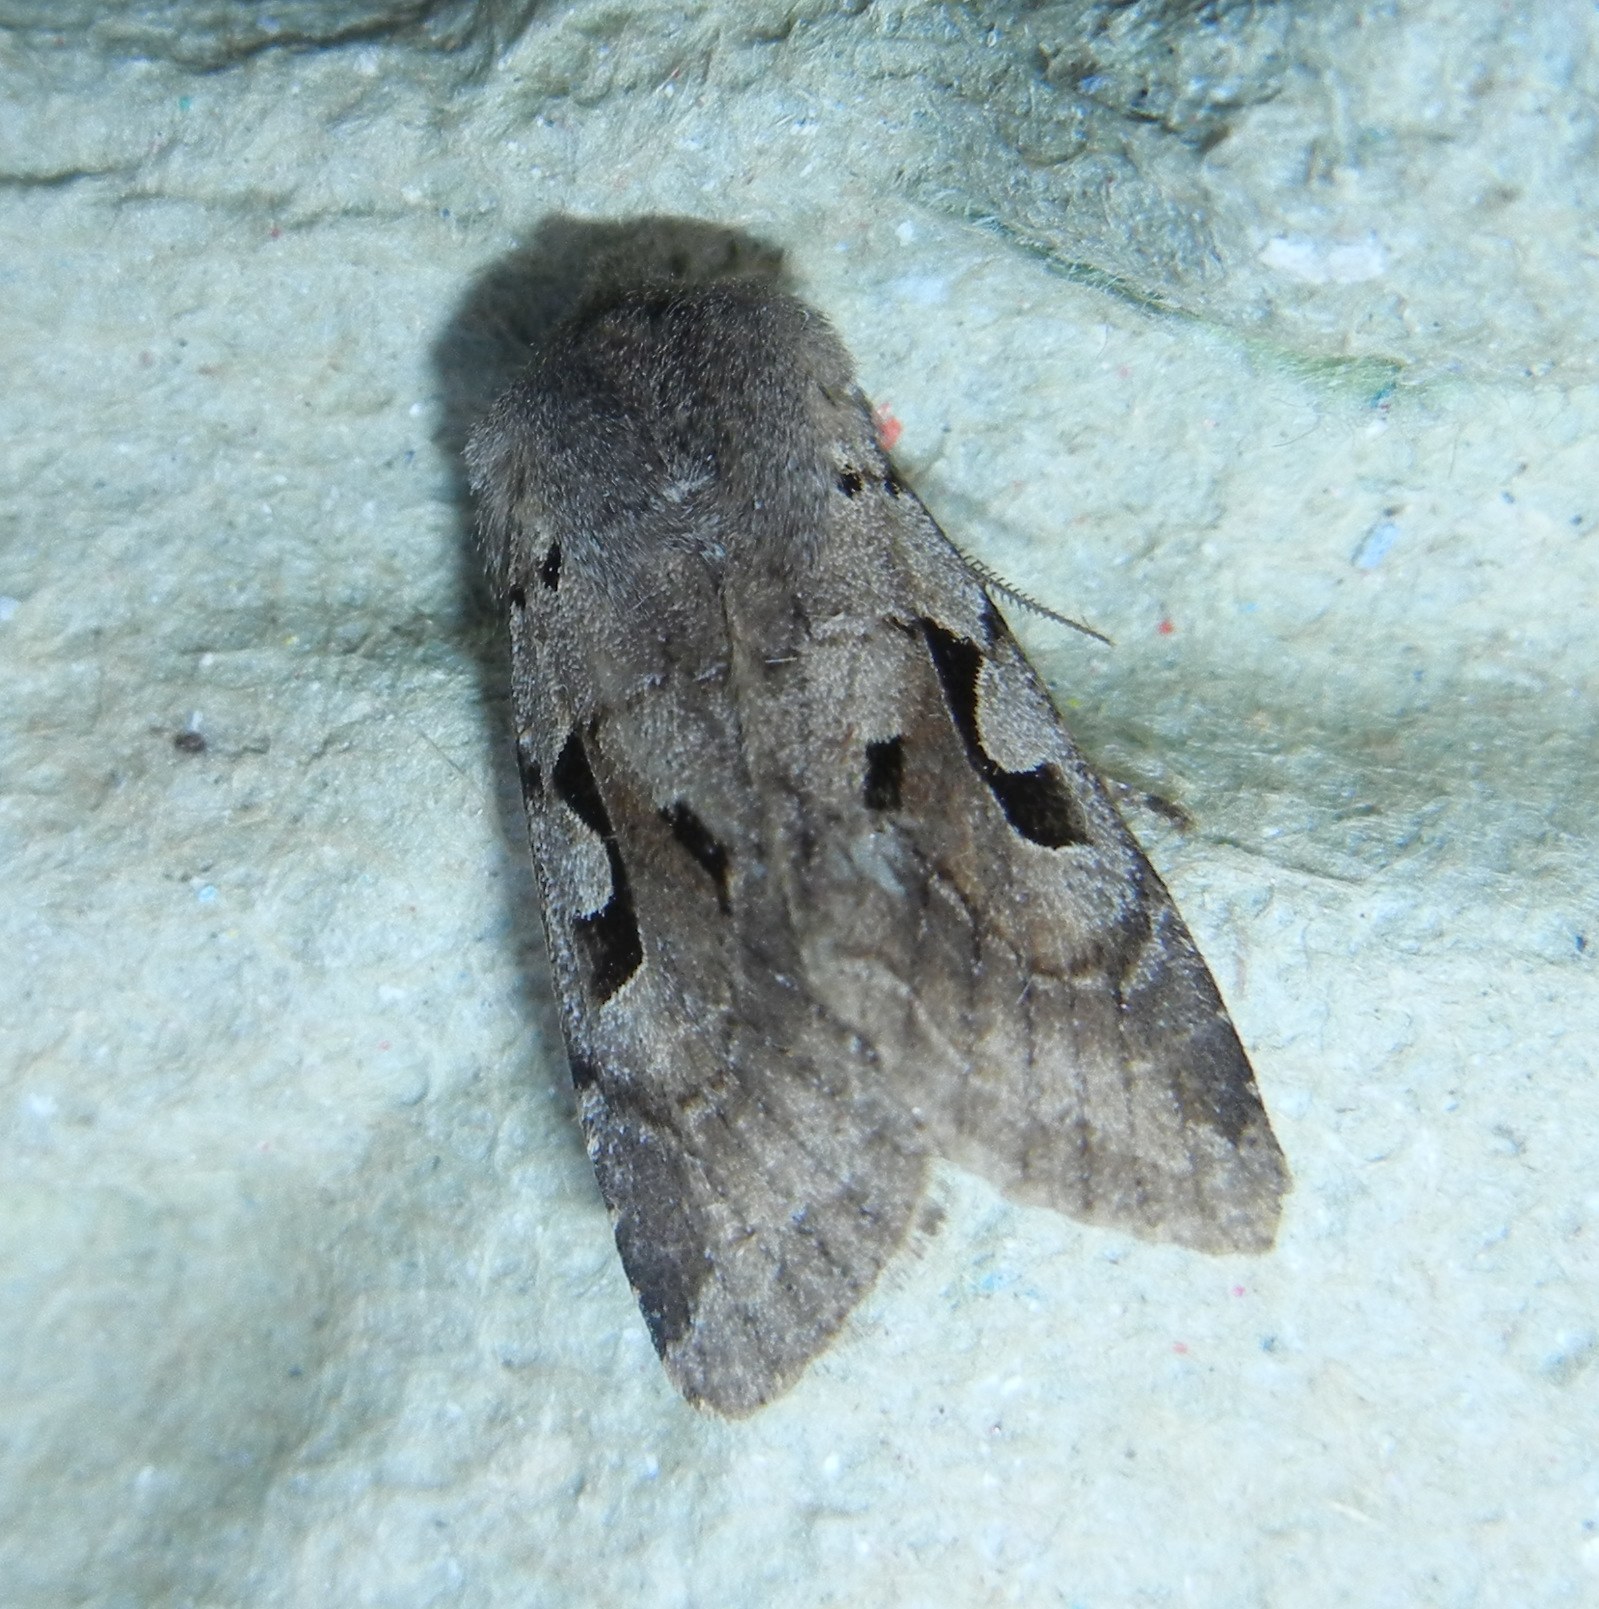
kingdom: Animalia
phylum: Arthropoda
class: Insecta
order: Lepidoptera
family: Noctuidae
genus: Orthosia
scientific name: Orthosia gothica
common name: Hebrew character
